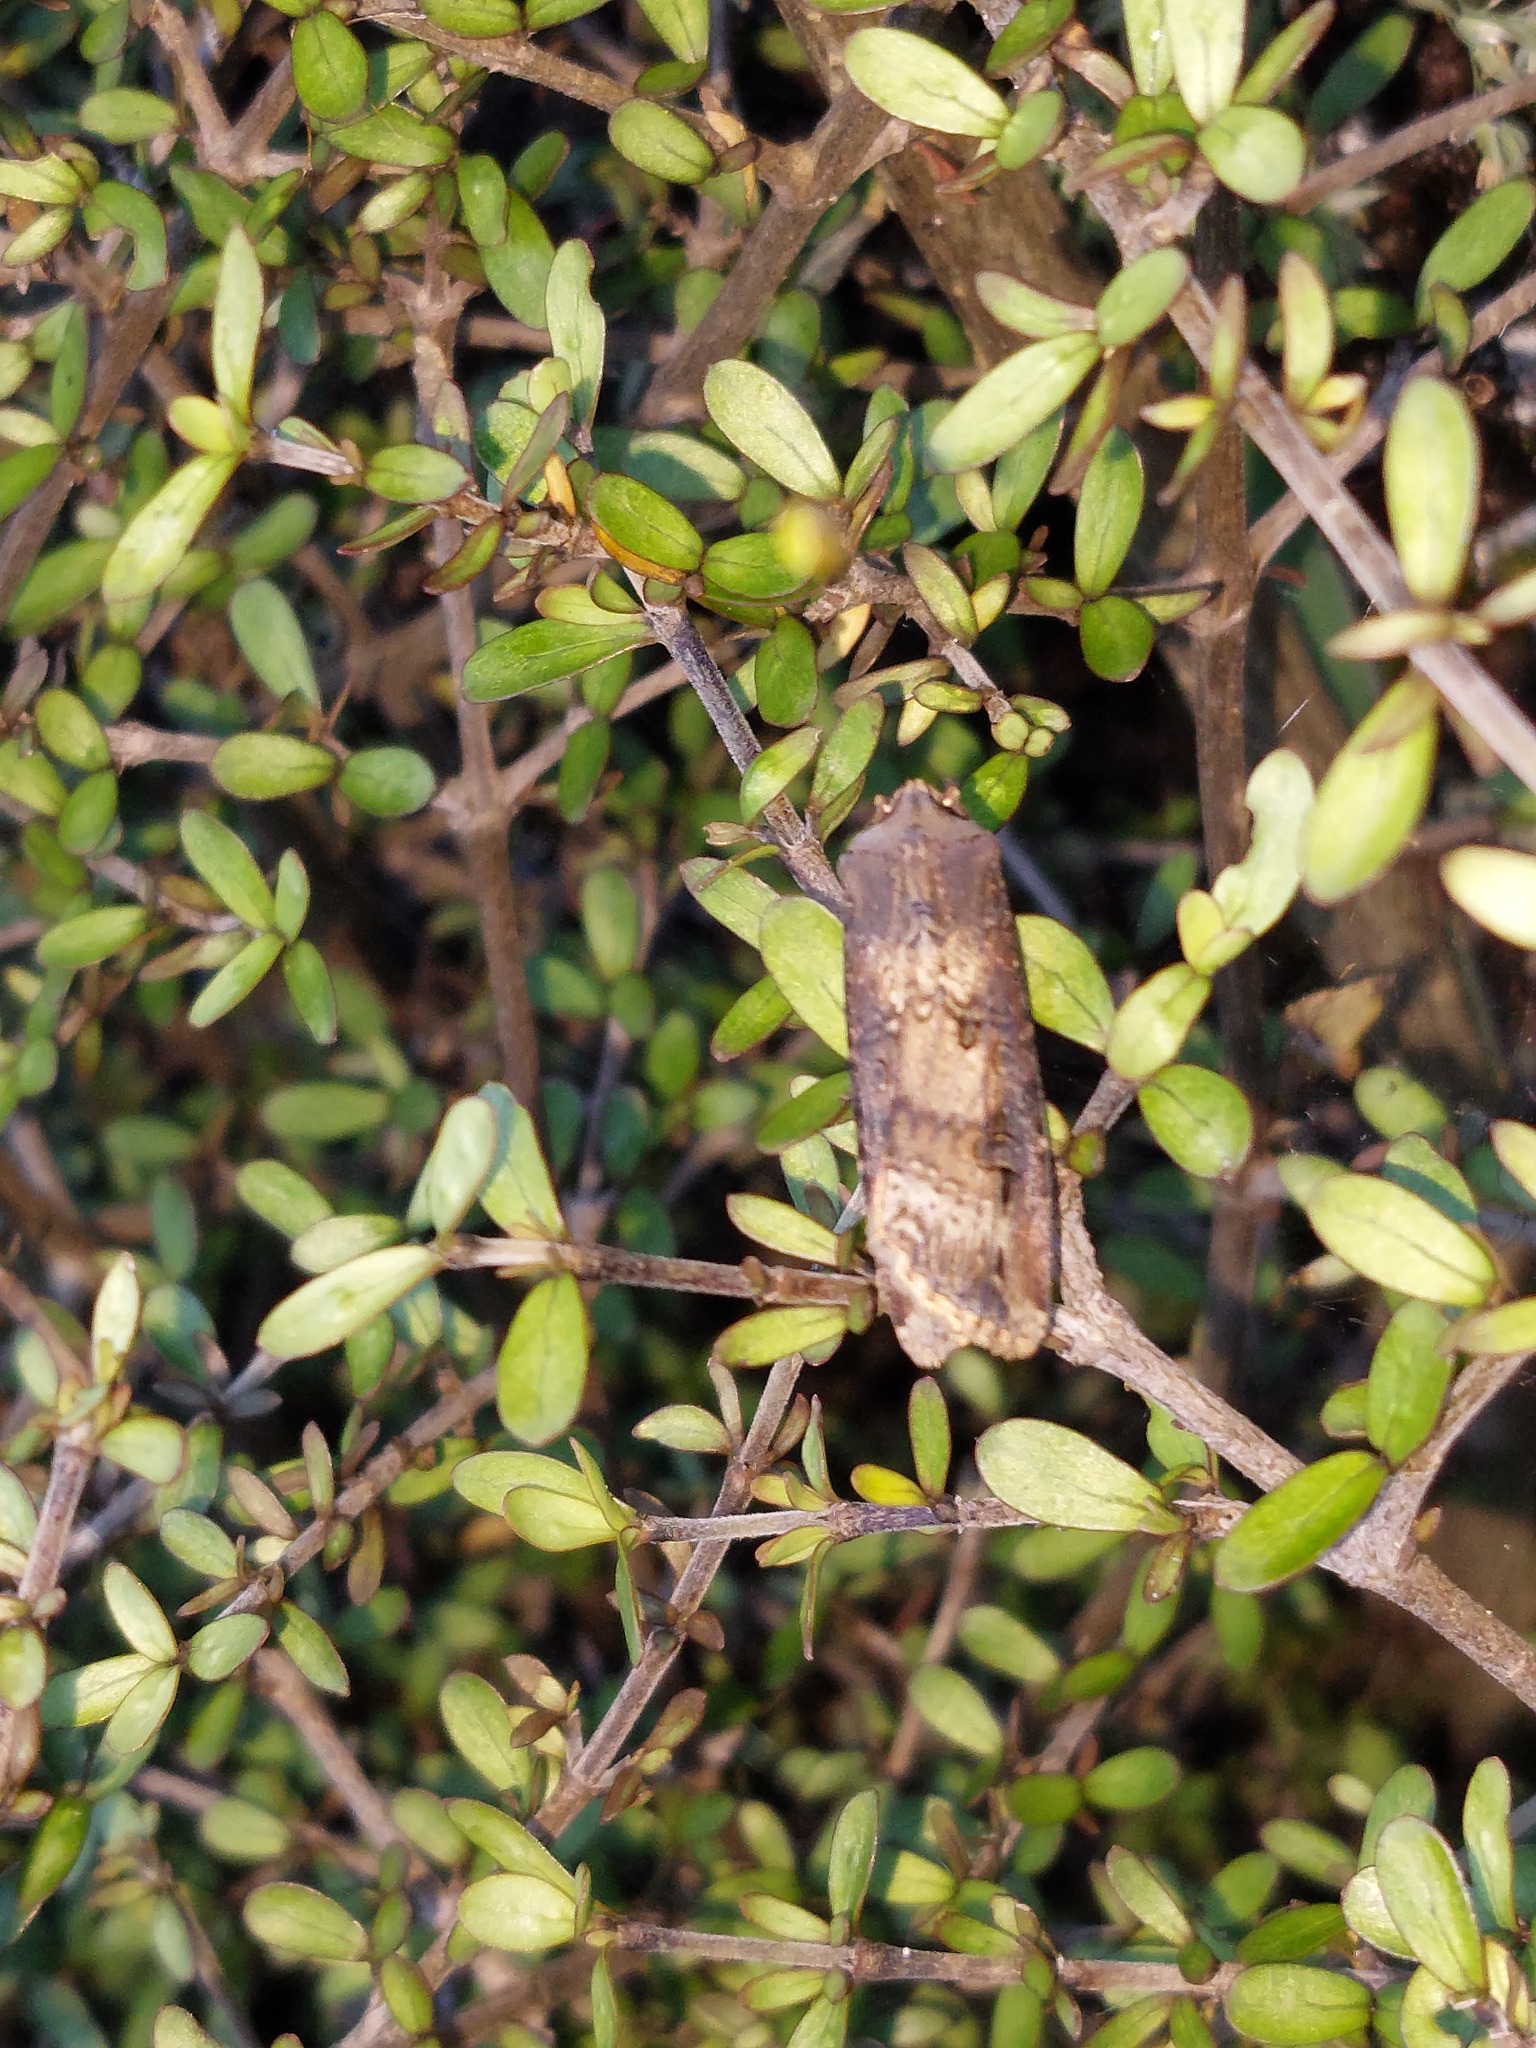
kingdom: Plantae
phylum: Tracheophyta
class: Magnoliopsida
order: Gentianales
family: Rubiaceae
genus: Coprosma
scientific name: Coprosma dumosa
